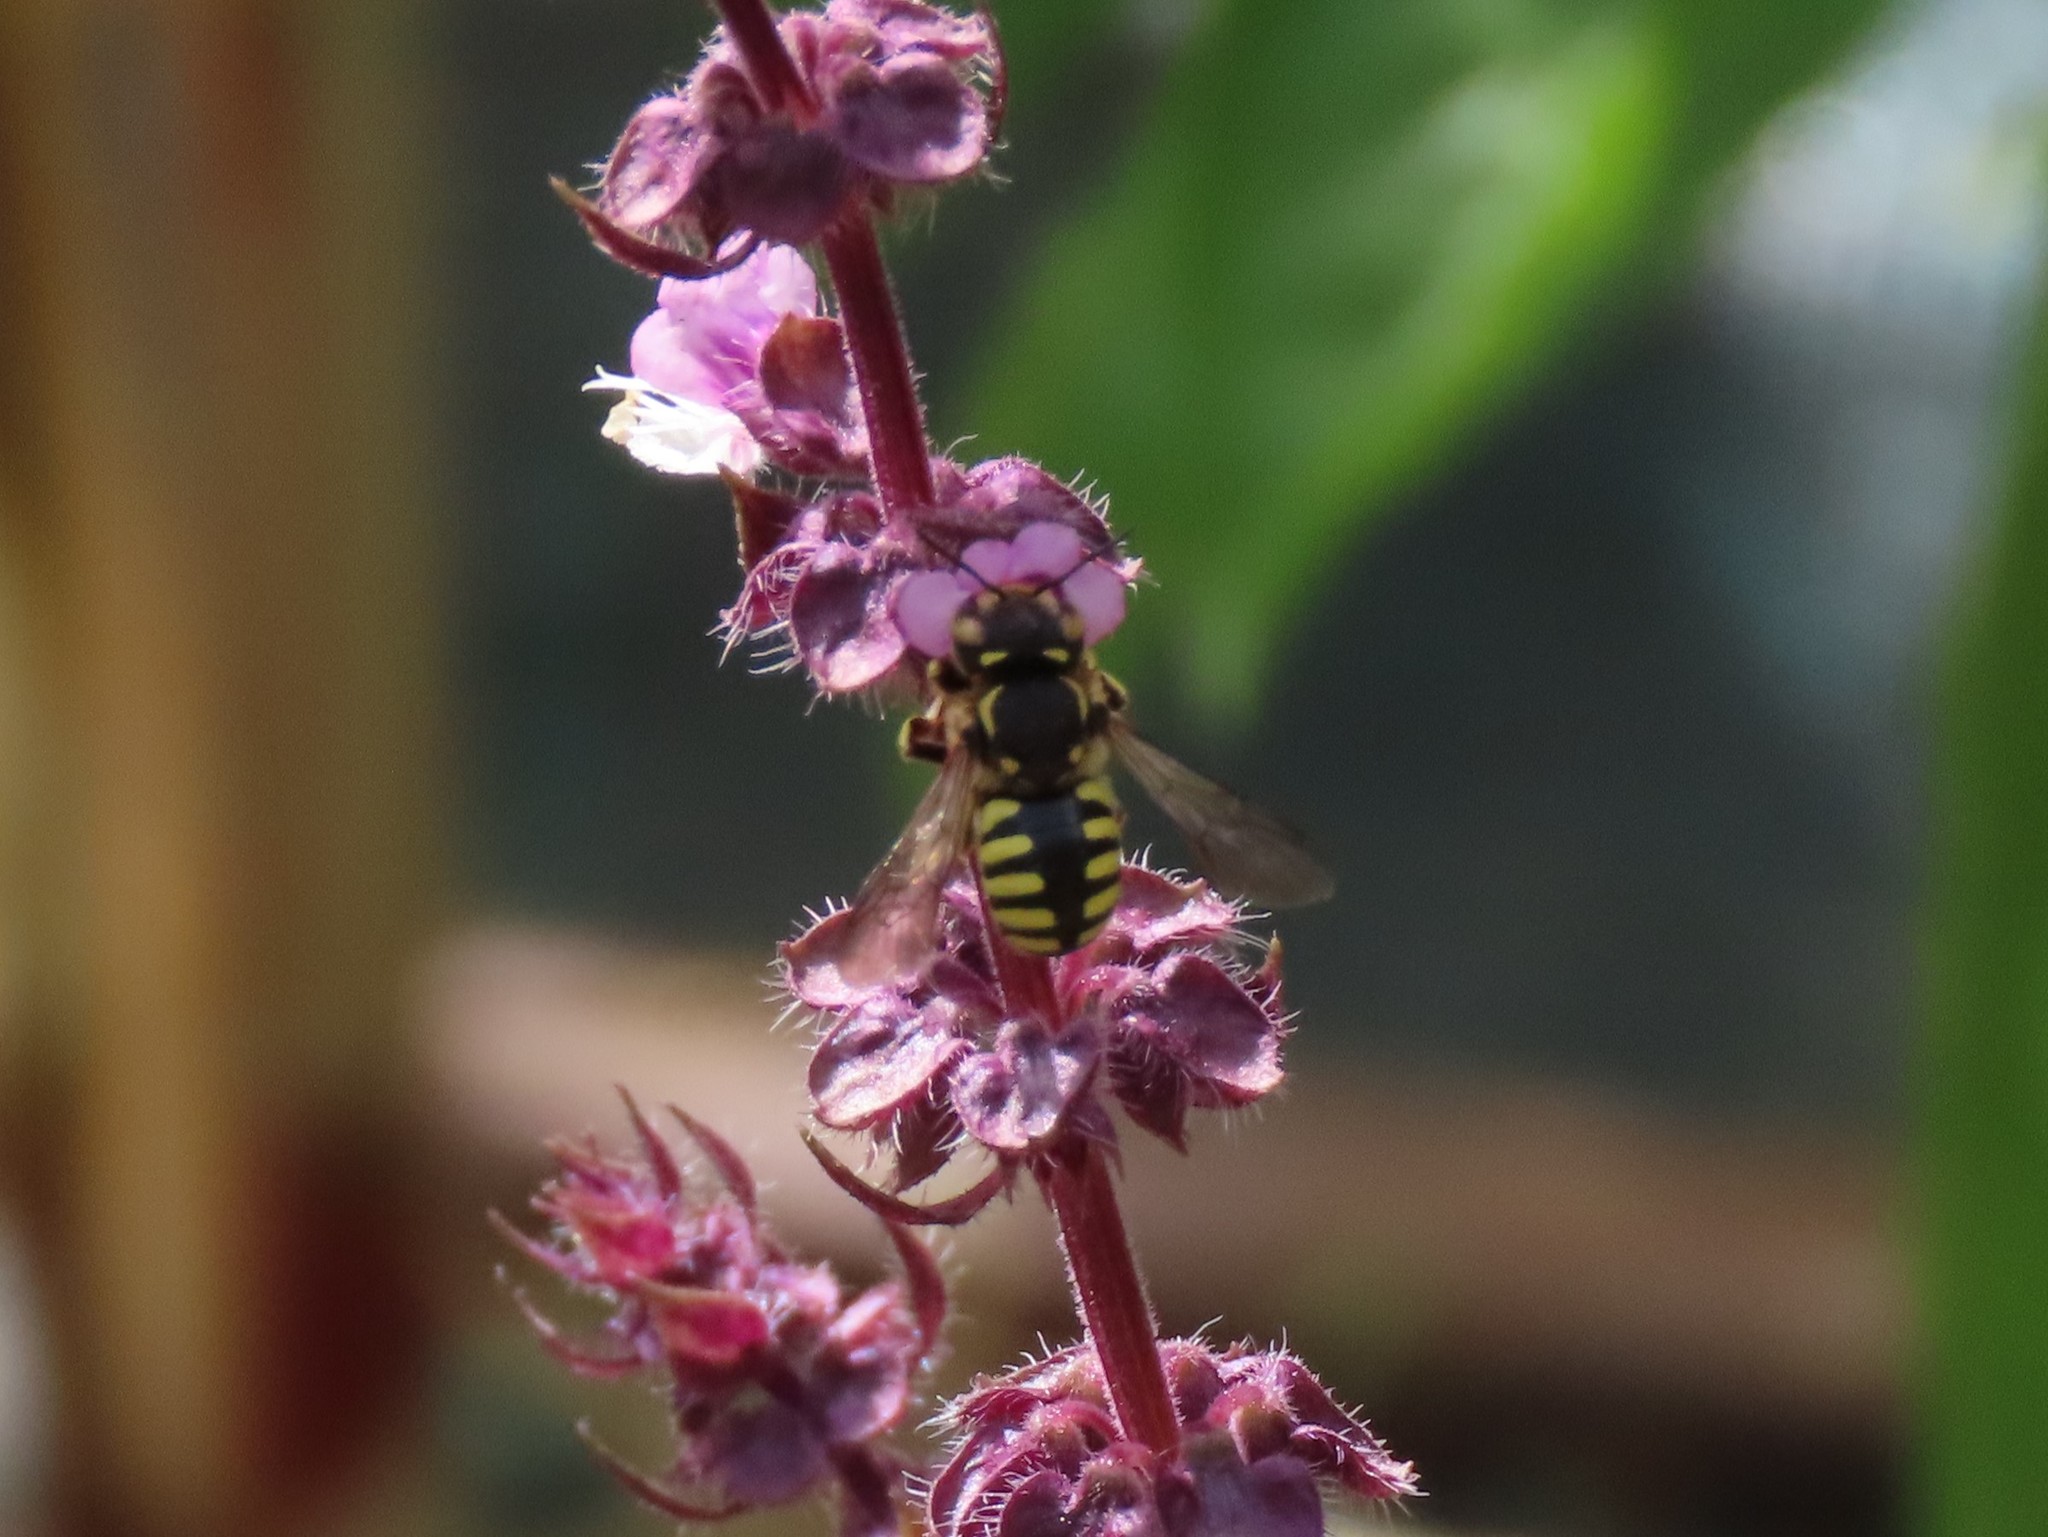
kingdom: Animalia
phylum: Arthropoda
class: Insecta
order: Hymenoptera
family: Megachilidae
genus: Anthidium
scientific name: Anthidium florentinum
